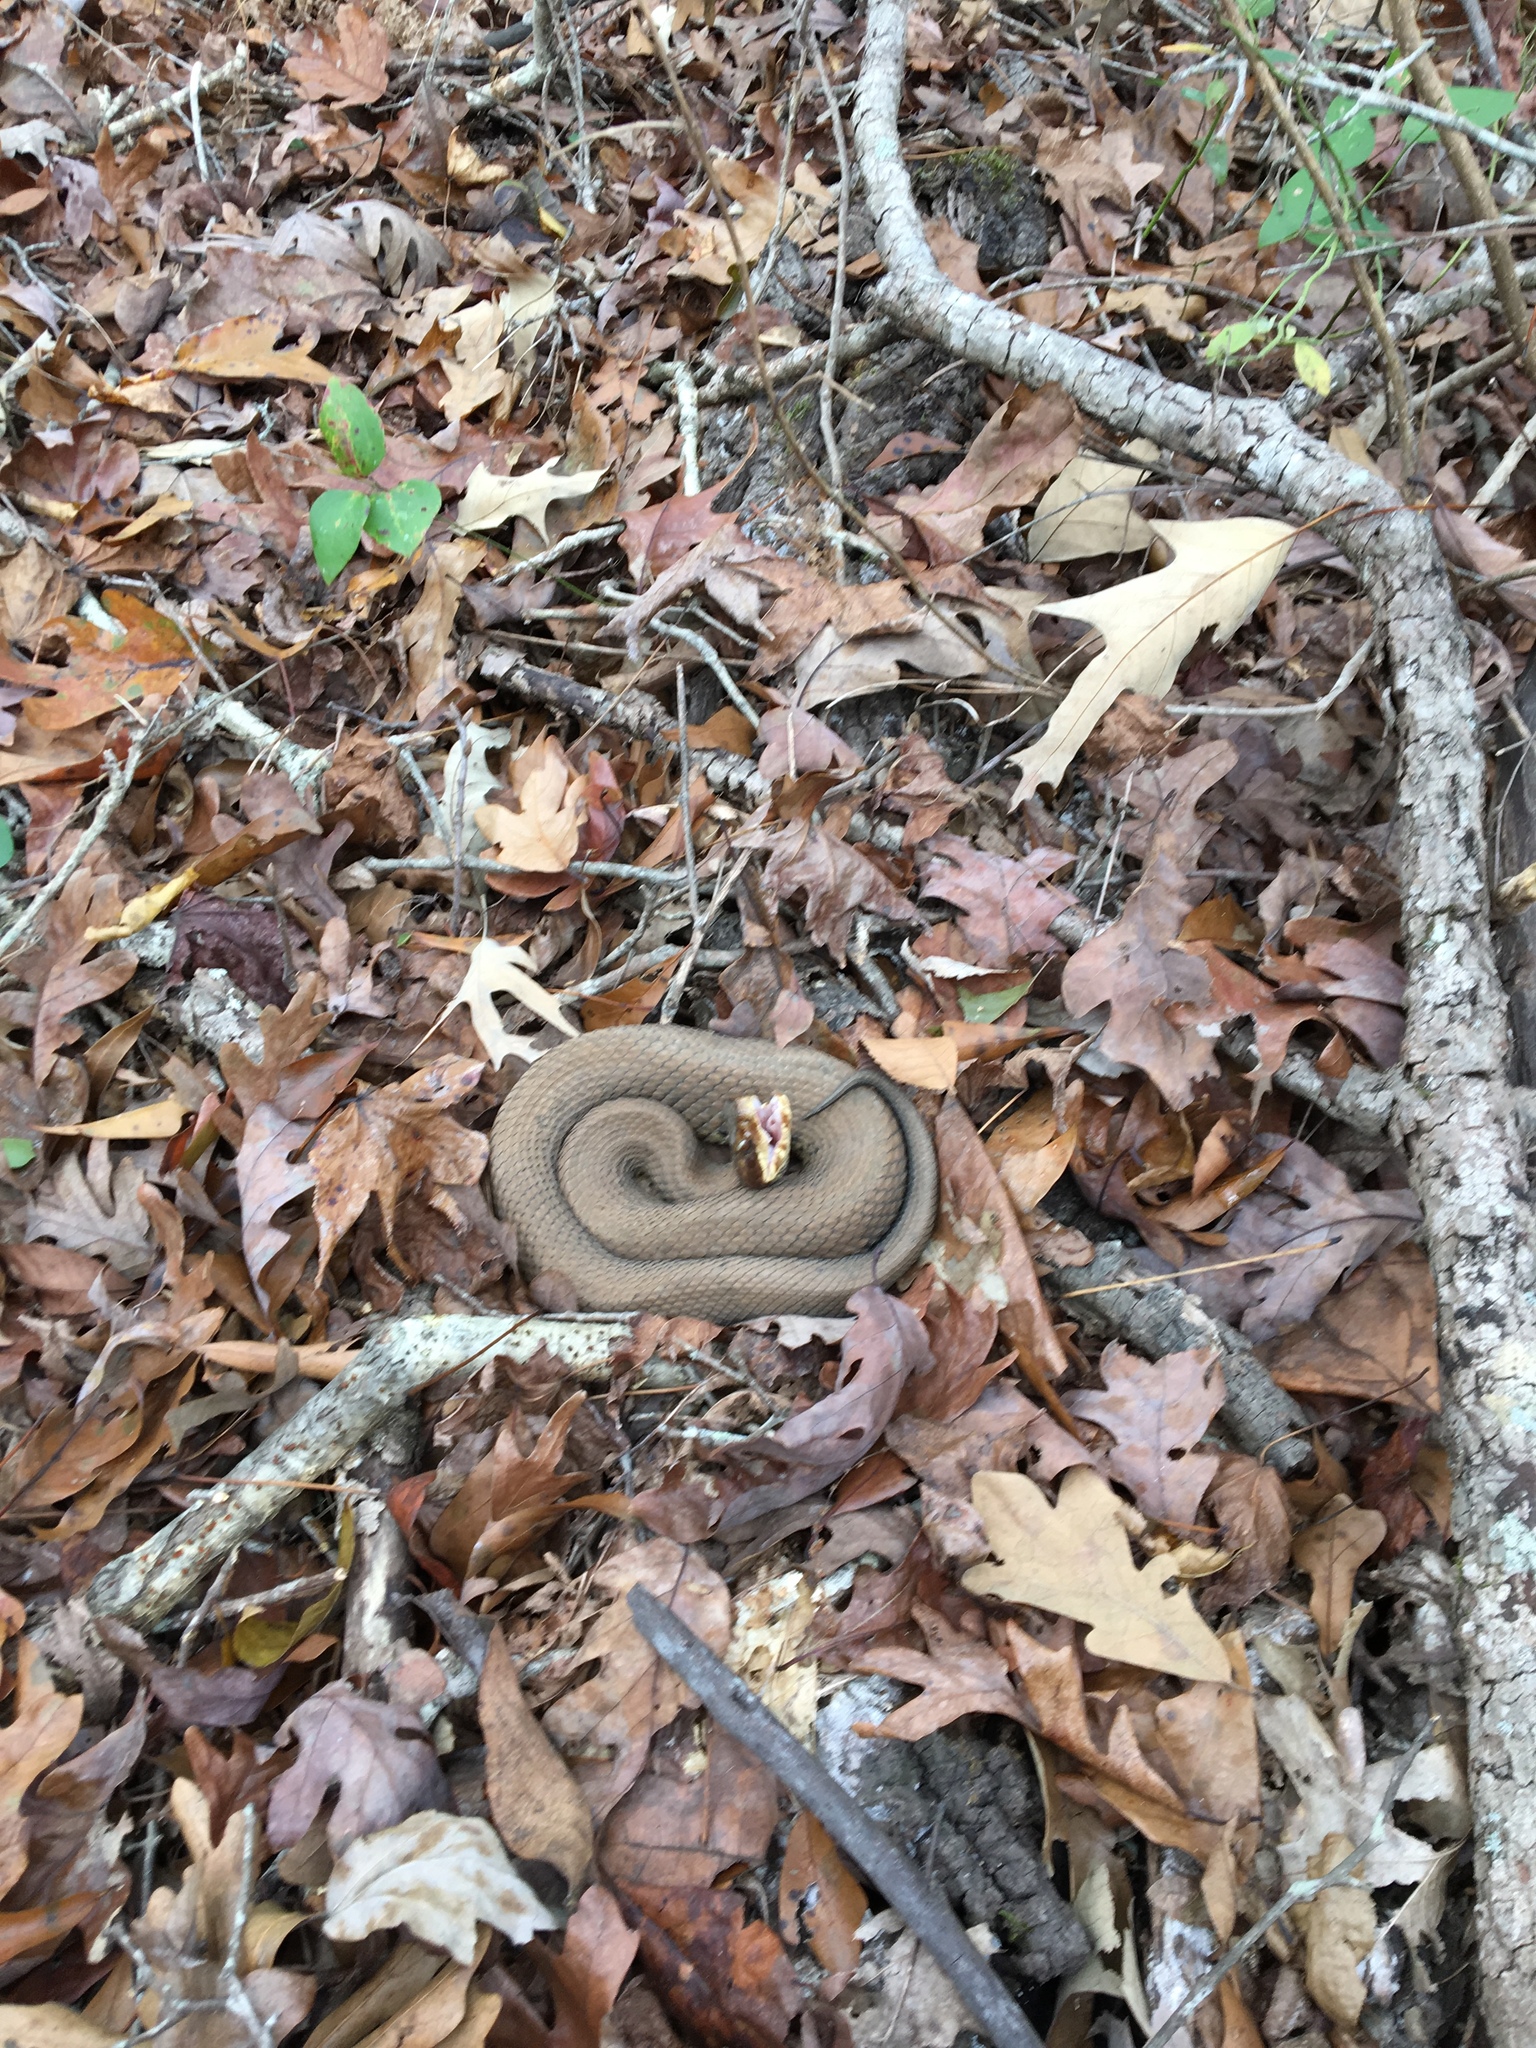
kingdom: Animalia
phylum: Chordata
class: Squamata
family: Viperidae
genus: Agkistrodon
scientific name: Agkistrodon piscivorus
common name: Cottonmouth
